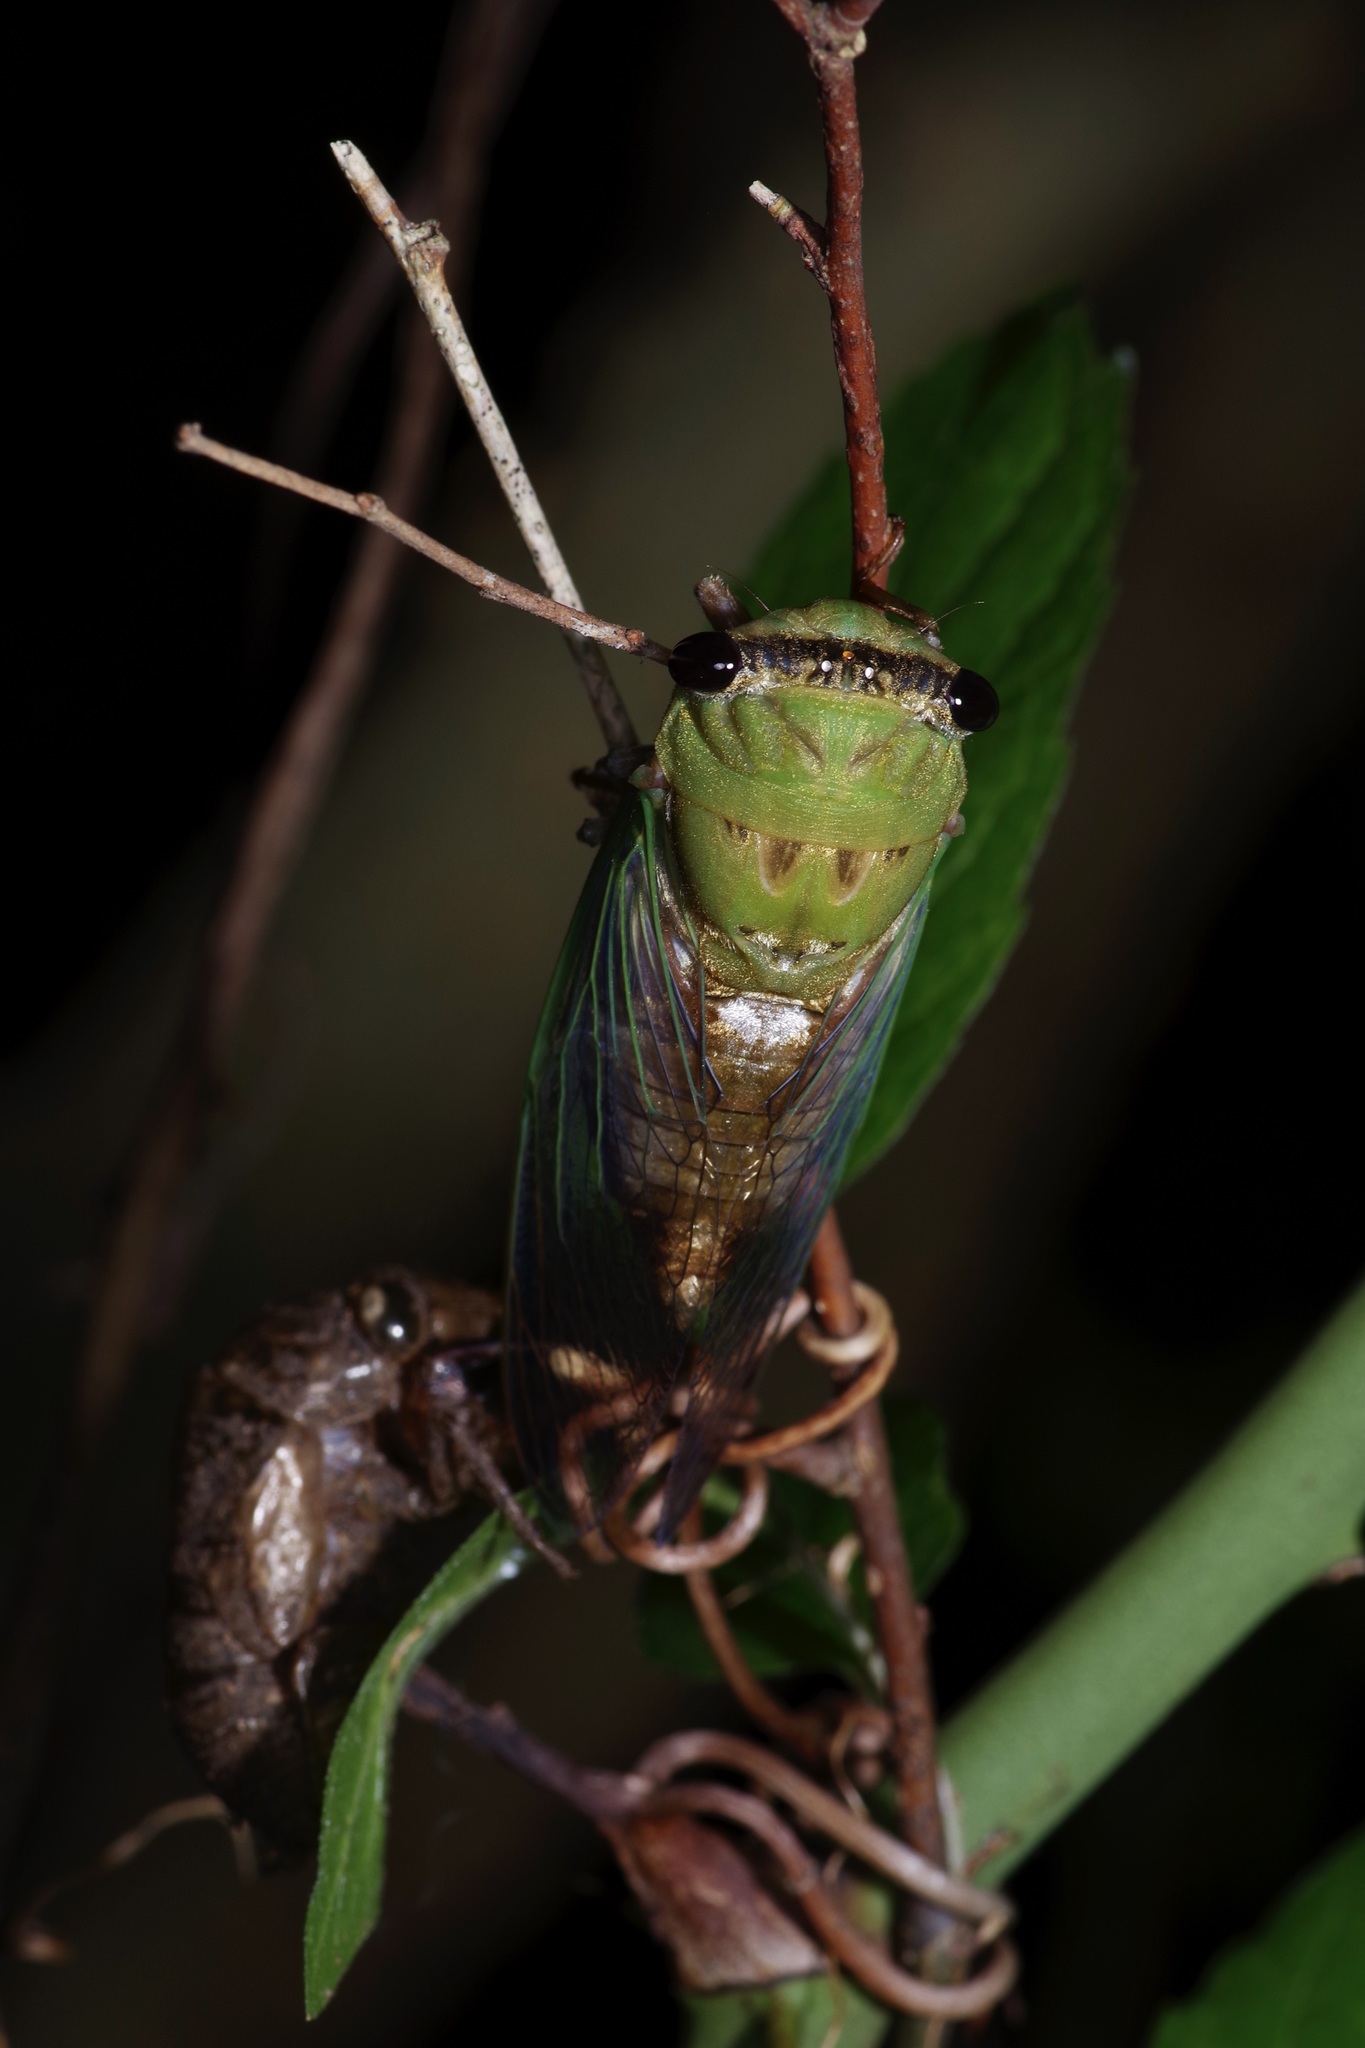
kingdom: Animalia
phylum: Arthropoda
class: Insecta
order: Hemiptera
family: Cicadidae
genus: Neotibicen
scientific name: Neotibicen superbus
